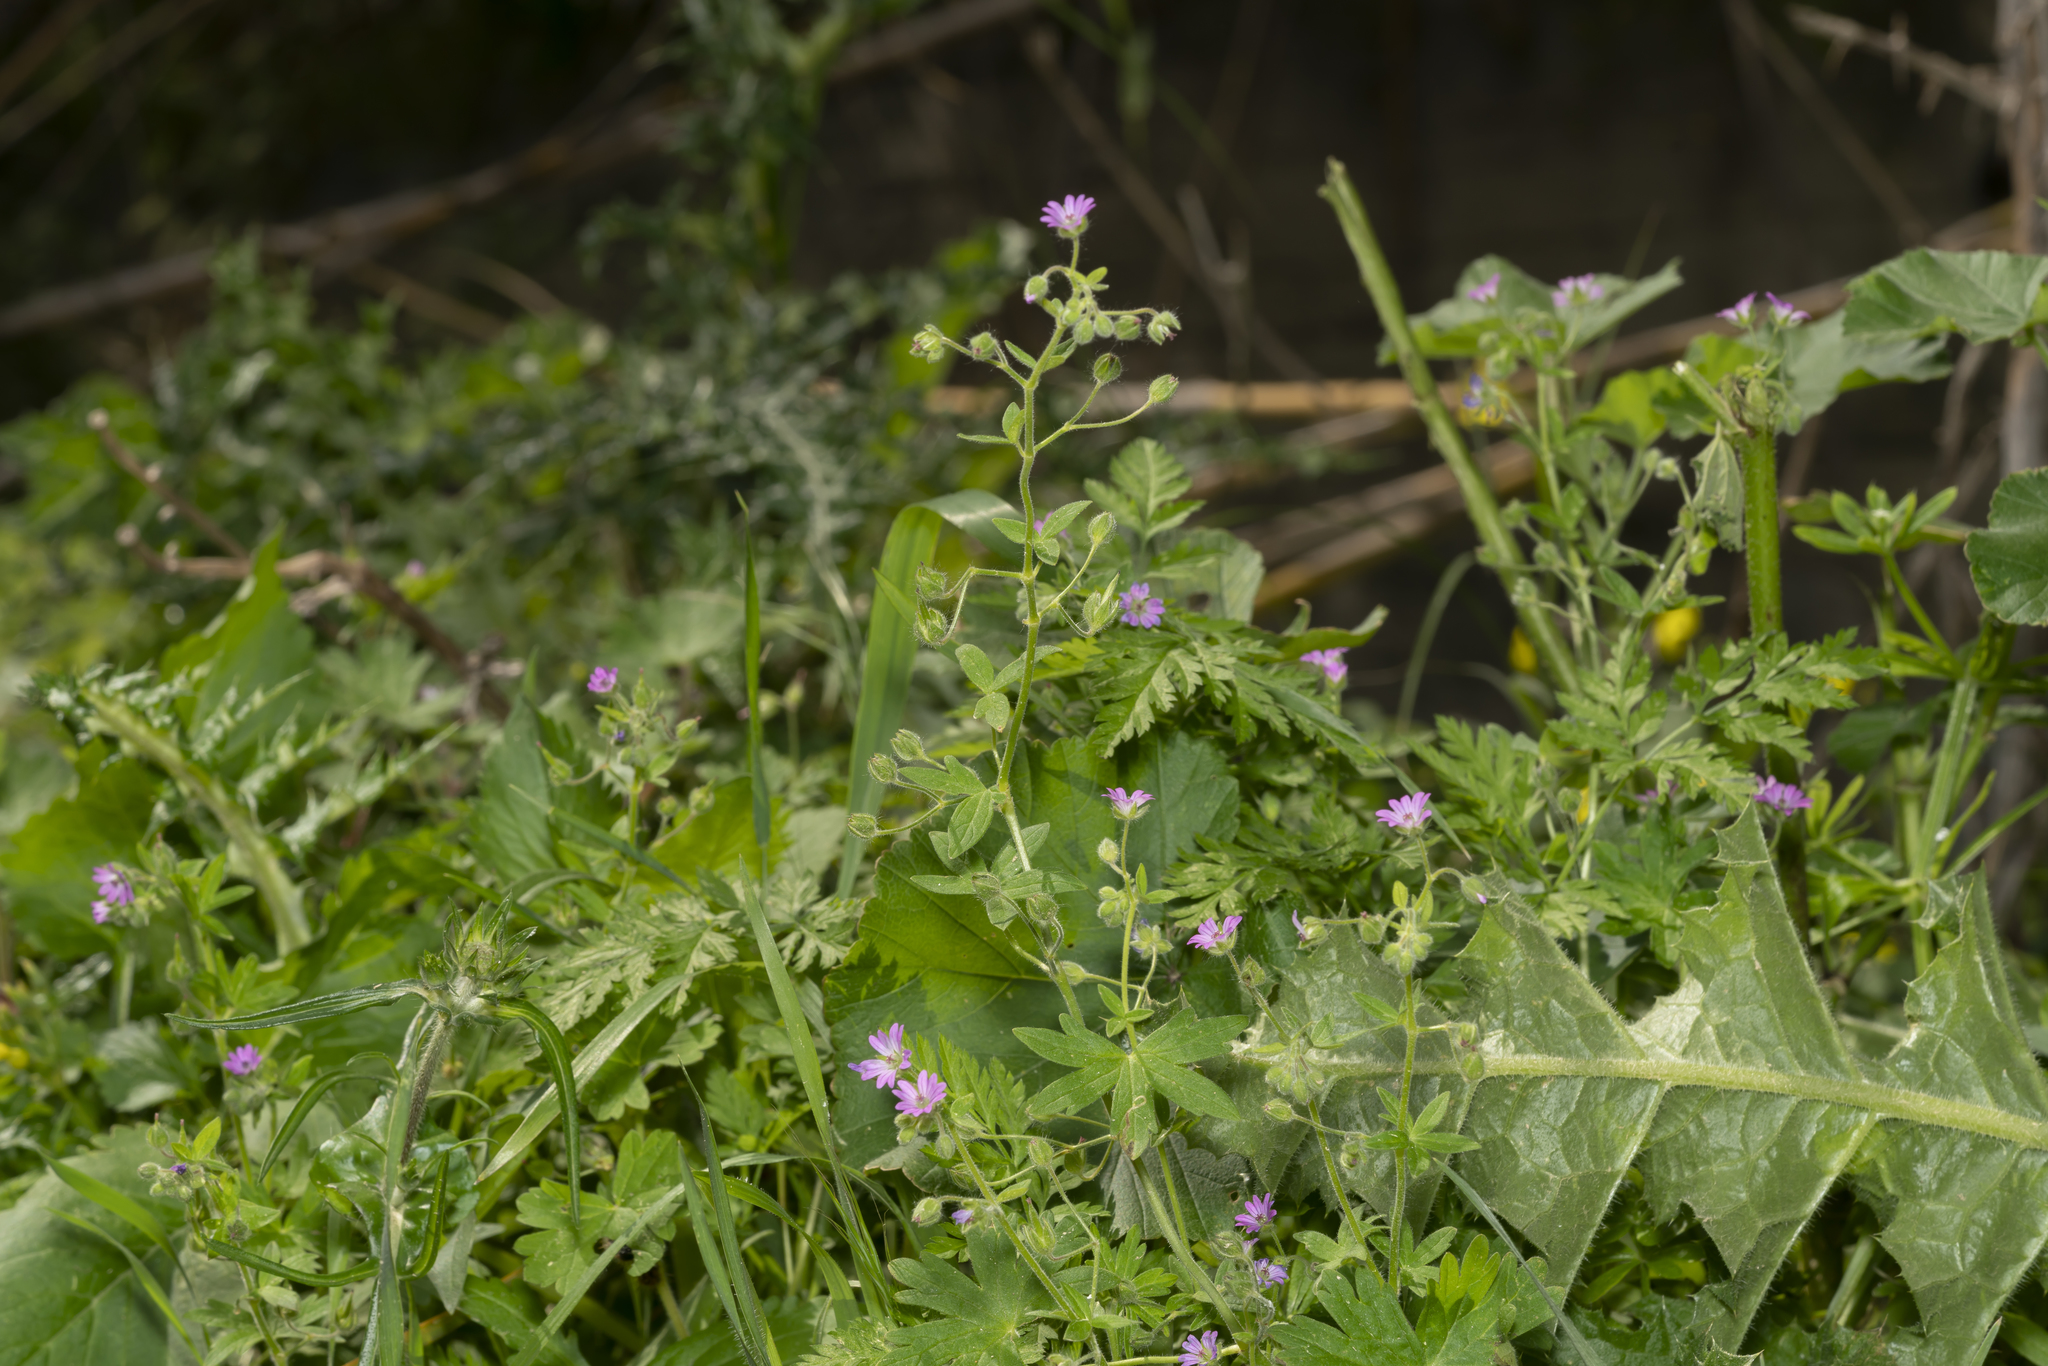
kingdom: Plantae
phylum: Tracheophyta
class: Magnoliopsida
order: Geraniales
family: Geraniaceae
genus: Geranium
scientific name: Geranium molle
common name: Dove's-foot crane's-bill
